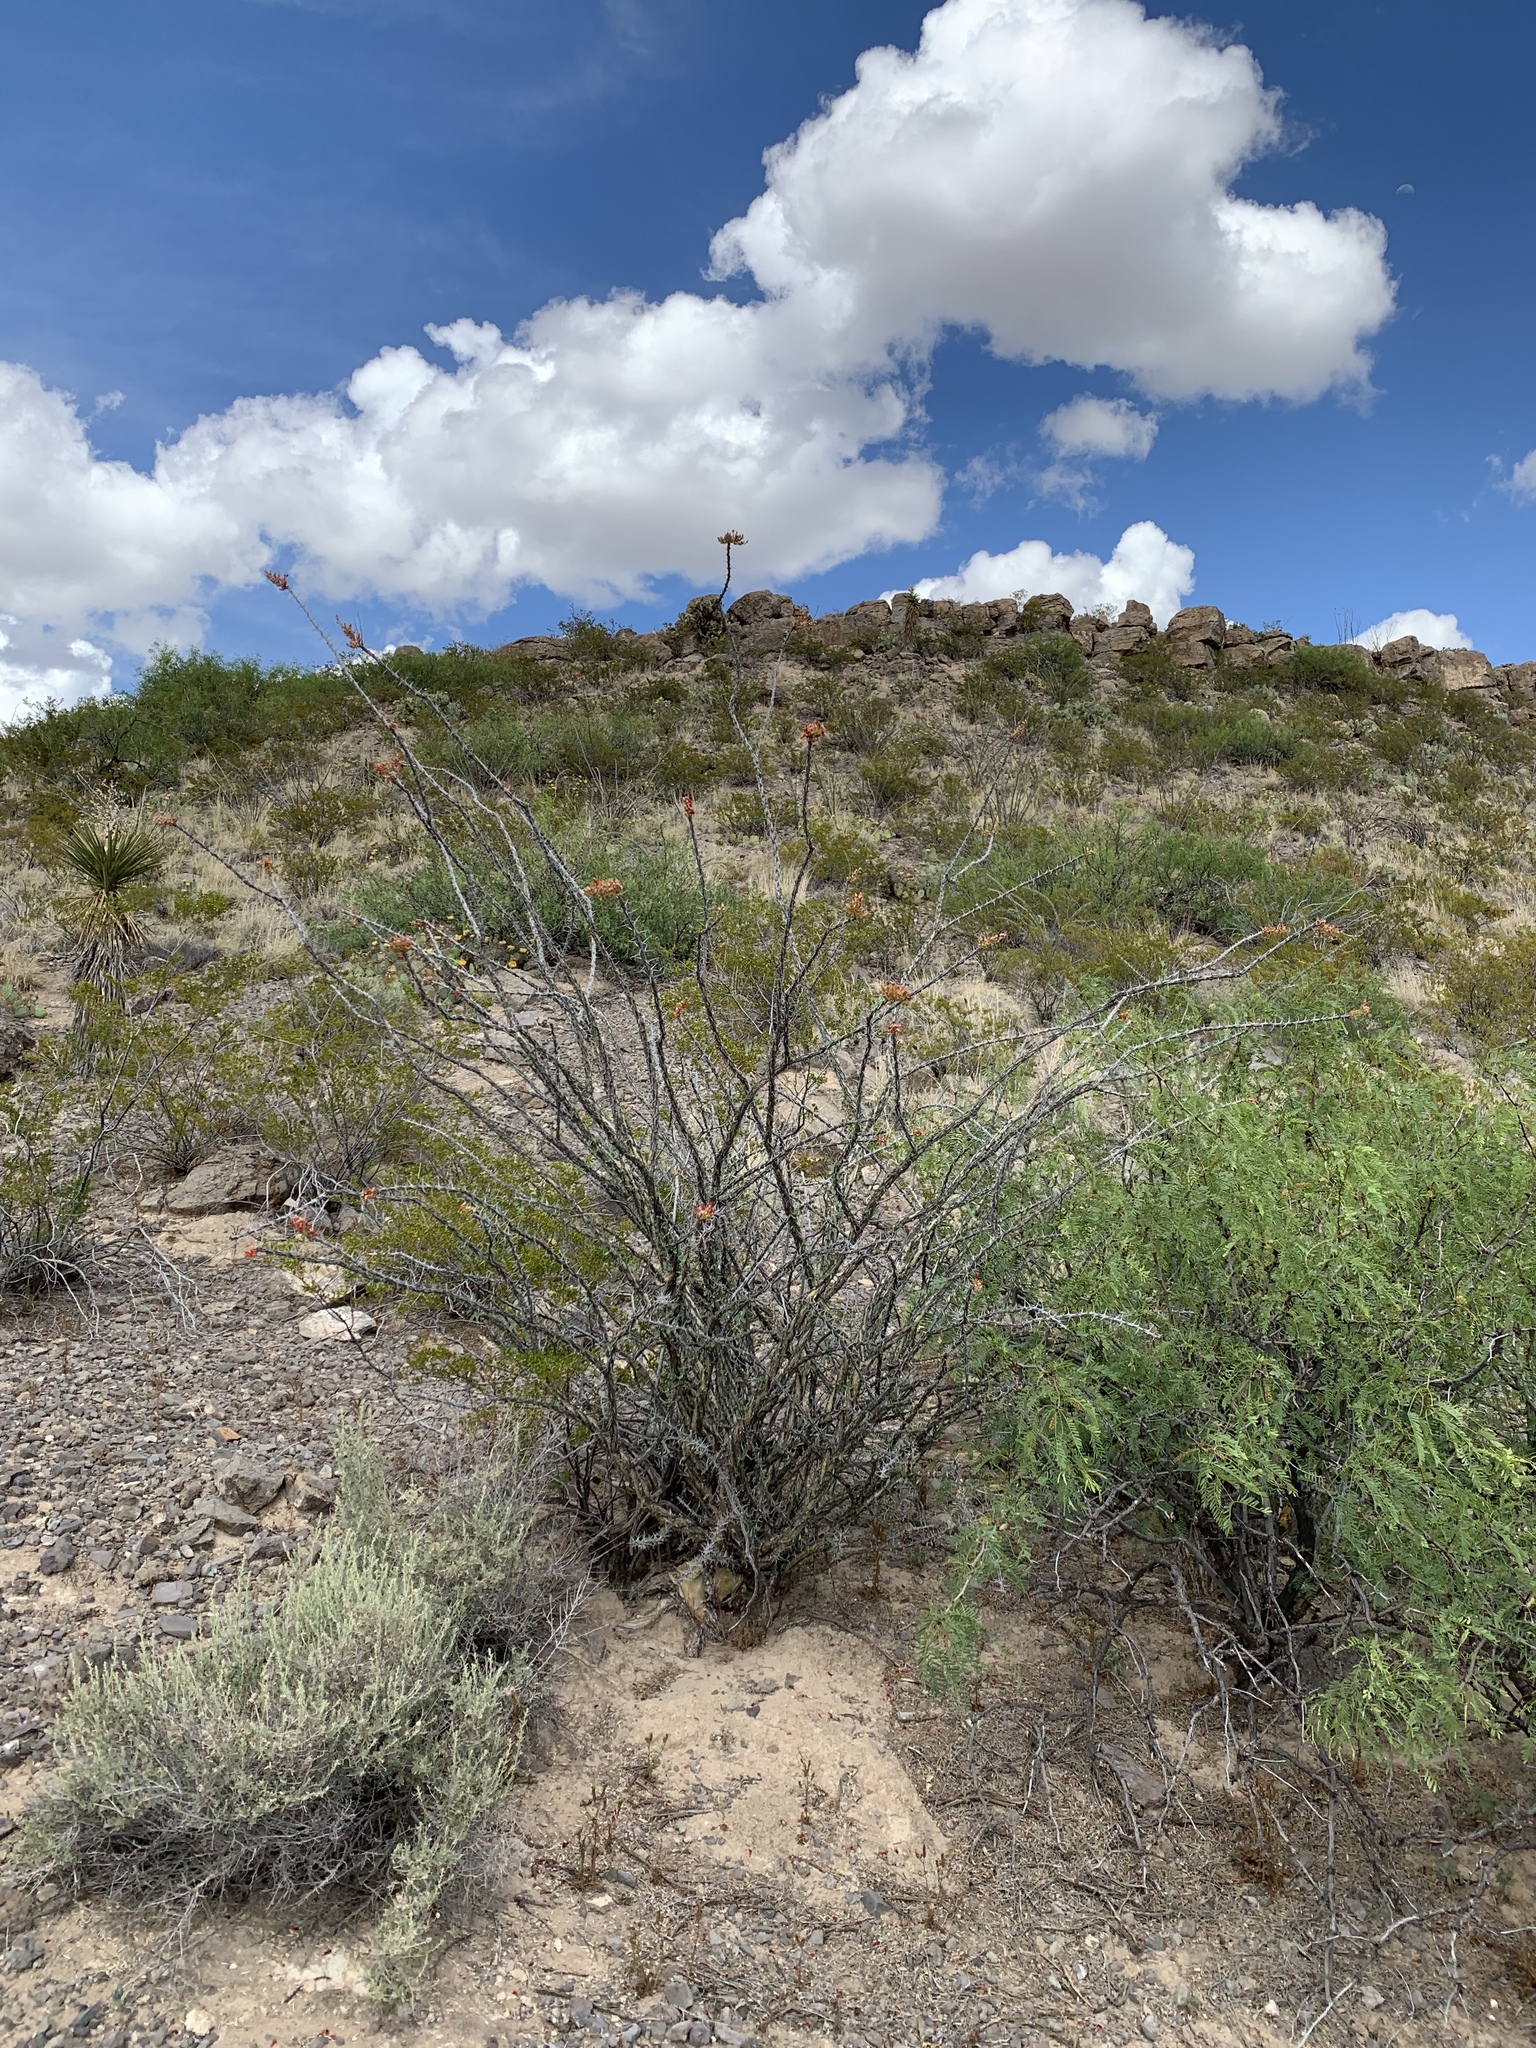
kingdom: Plantae
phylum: Tracheophyta
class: Magnoliopsida
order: Zygophyllales
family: Zygophyllaceae
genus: Larrea
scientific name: Larrea tridentata
